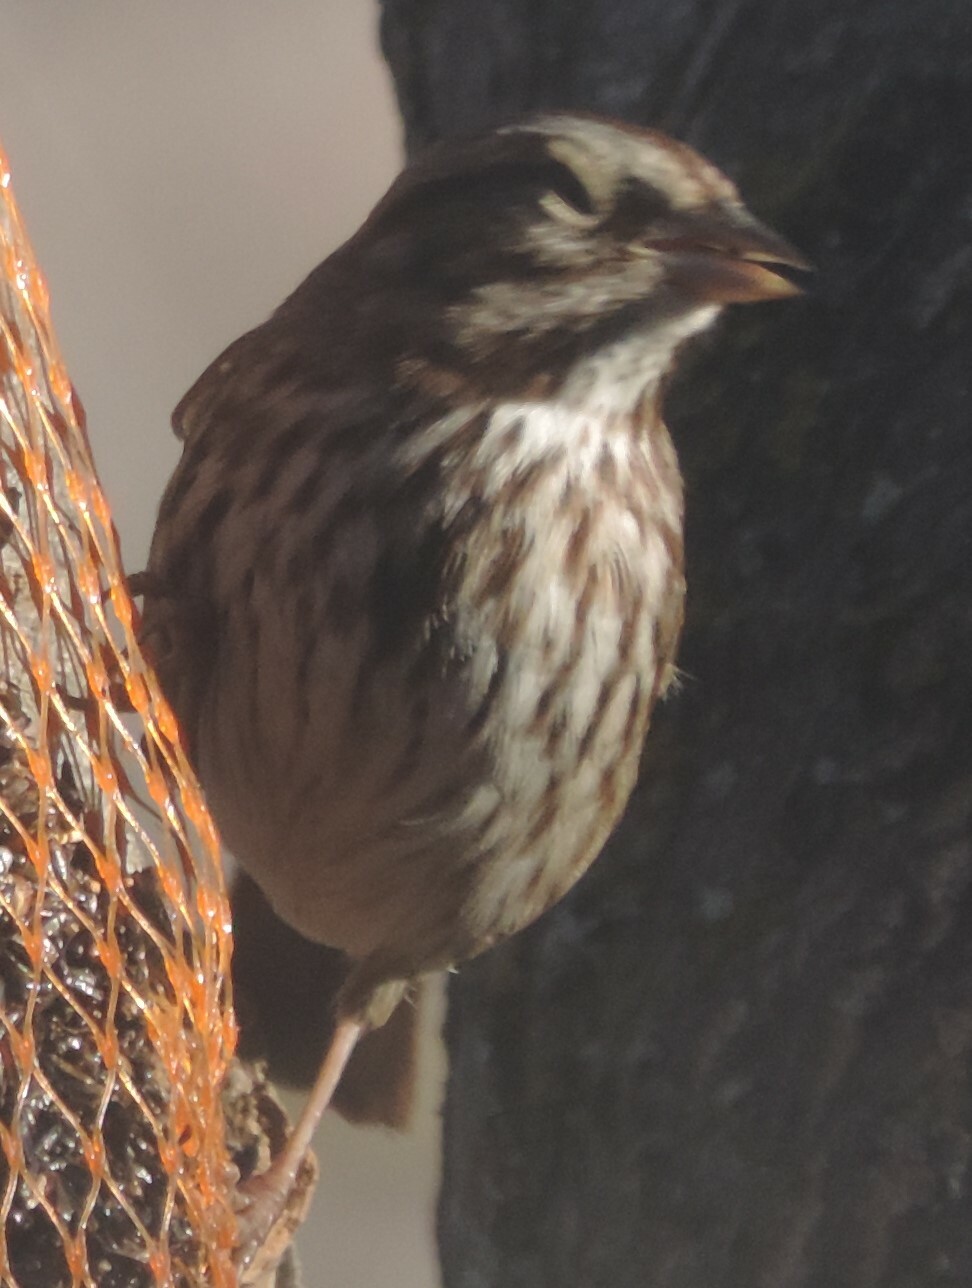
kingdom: Animalia
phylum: Chordata
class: Aves
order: Passeriformes
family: Passerellidae
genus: Melospiza
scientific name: Melospiza melodia
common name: Song sparrow
